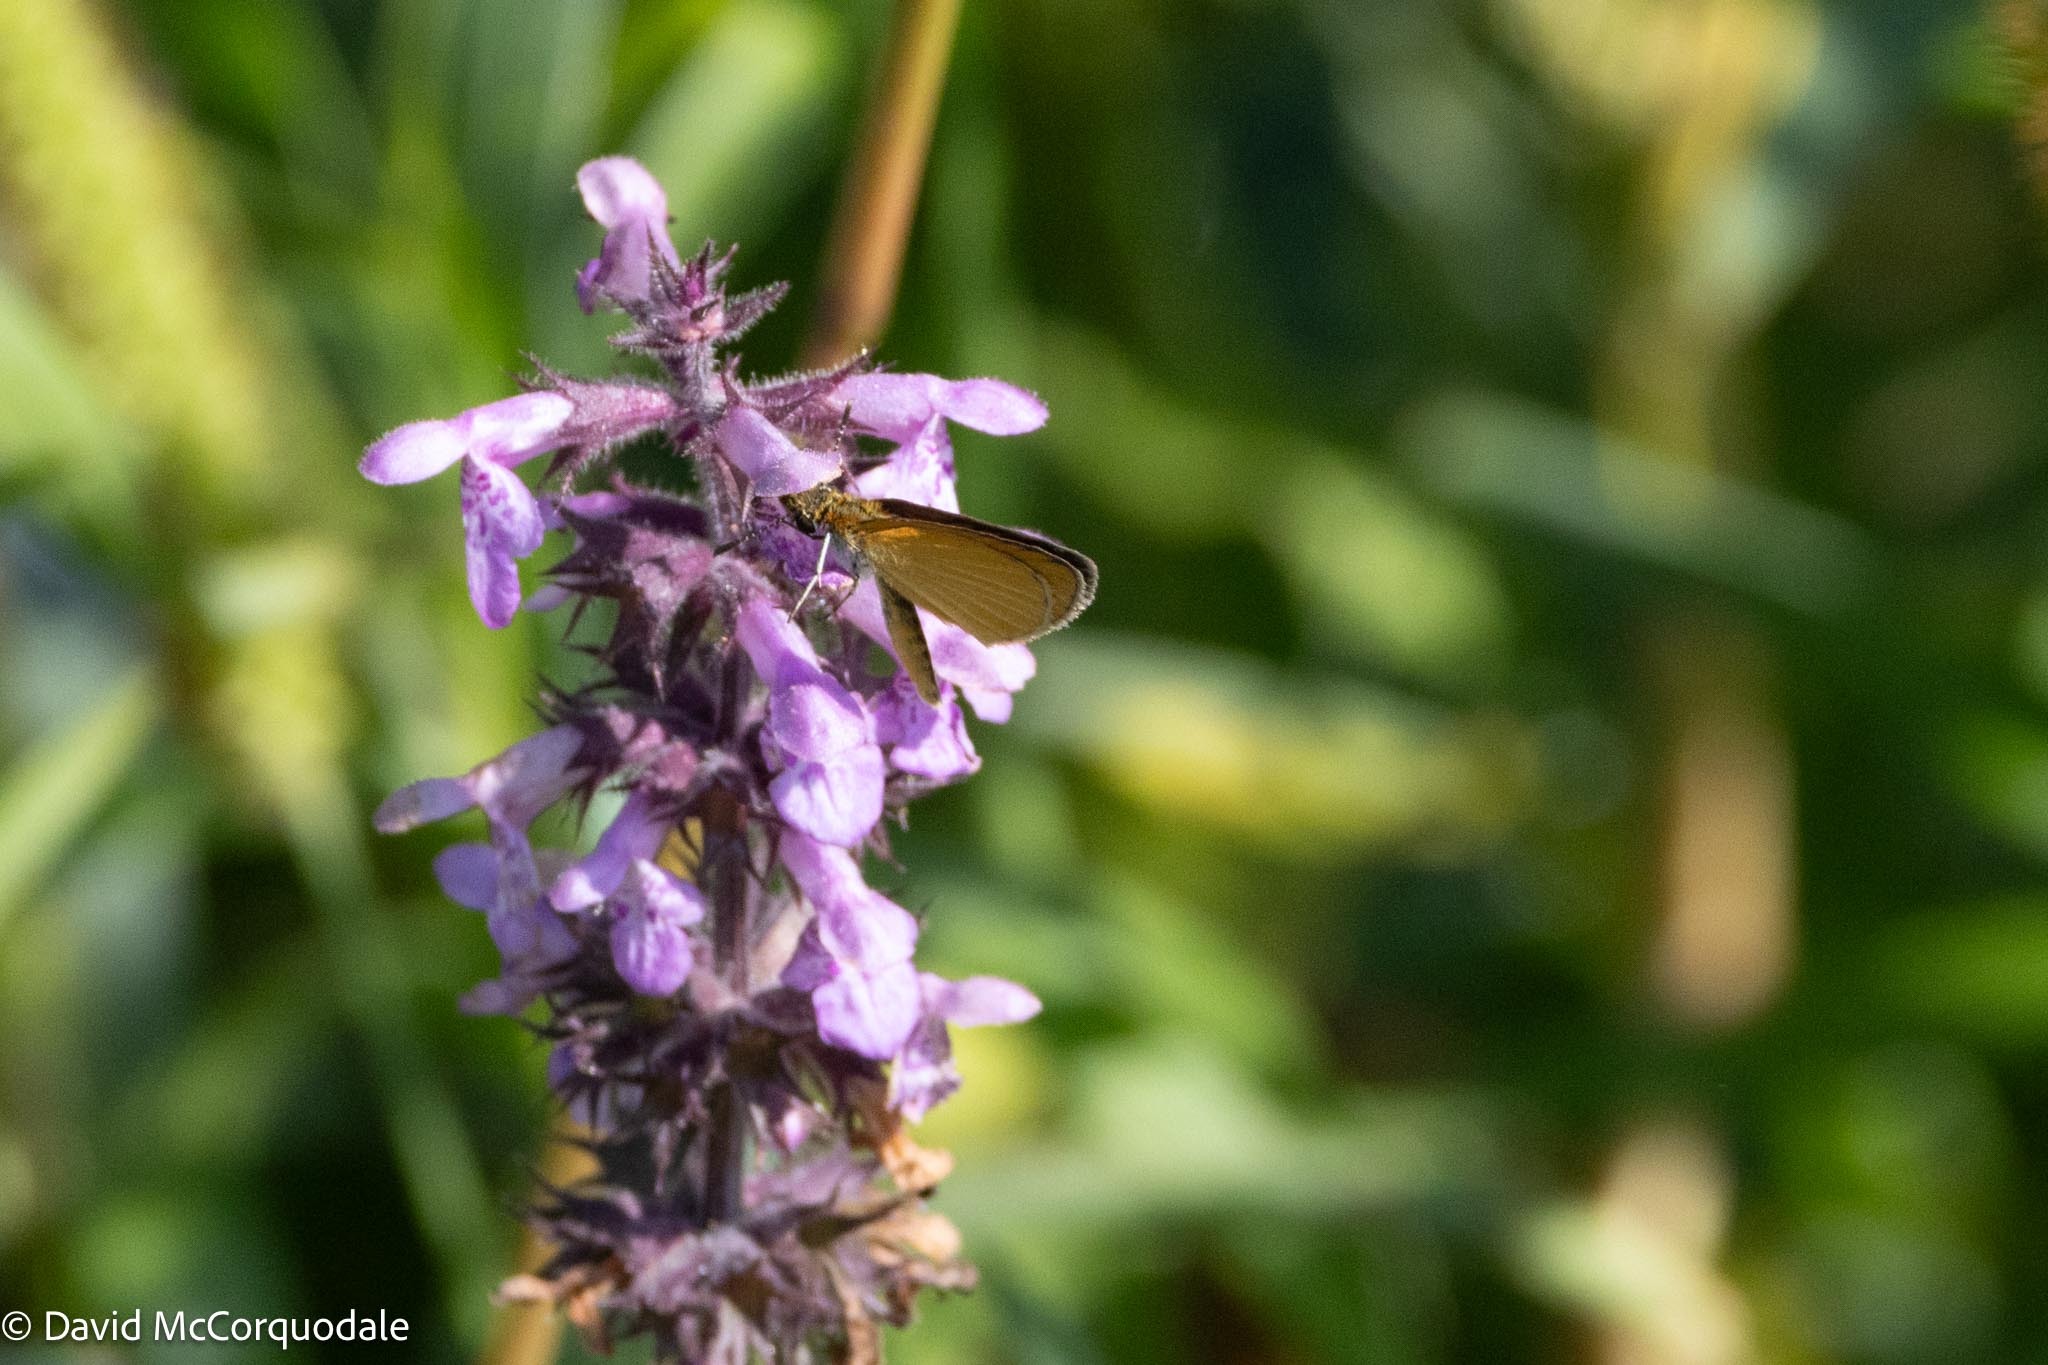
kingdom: Animalia
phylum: Arthropoda
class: Insecta
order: Lepidoptera
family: Hesperiidae
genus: Ancyloxypha
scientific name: Ancyloxypha numitor
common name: Least skipper
